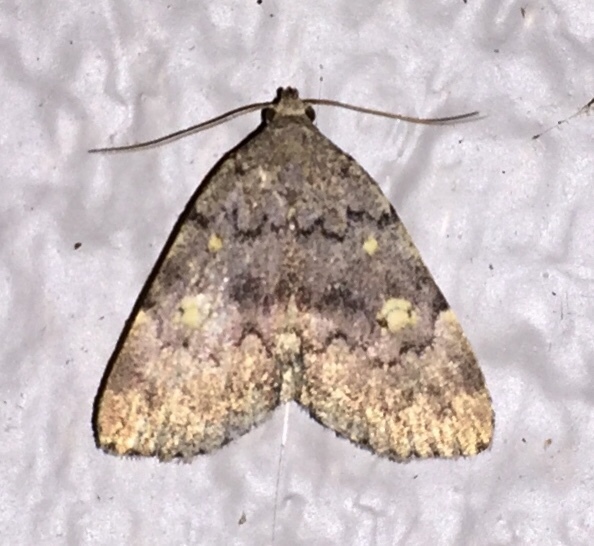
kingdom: Animalia
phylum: Arthropoda
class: Insecta
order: Lepidoptera
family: Erebidae
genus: Idia
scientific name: Idia aemula
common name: Common idia moth
